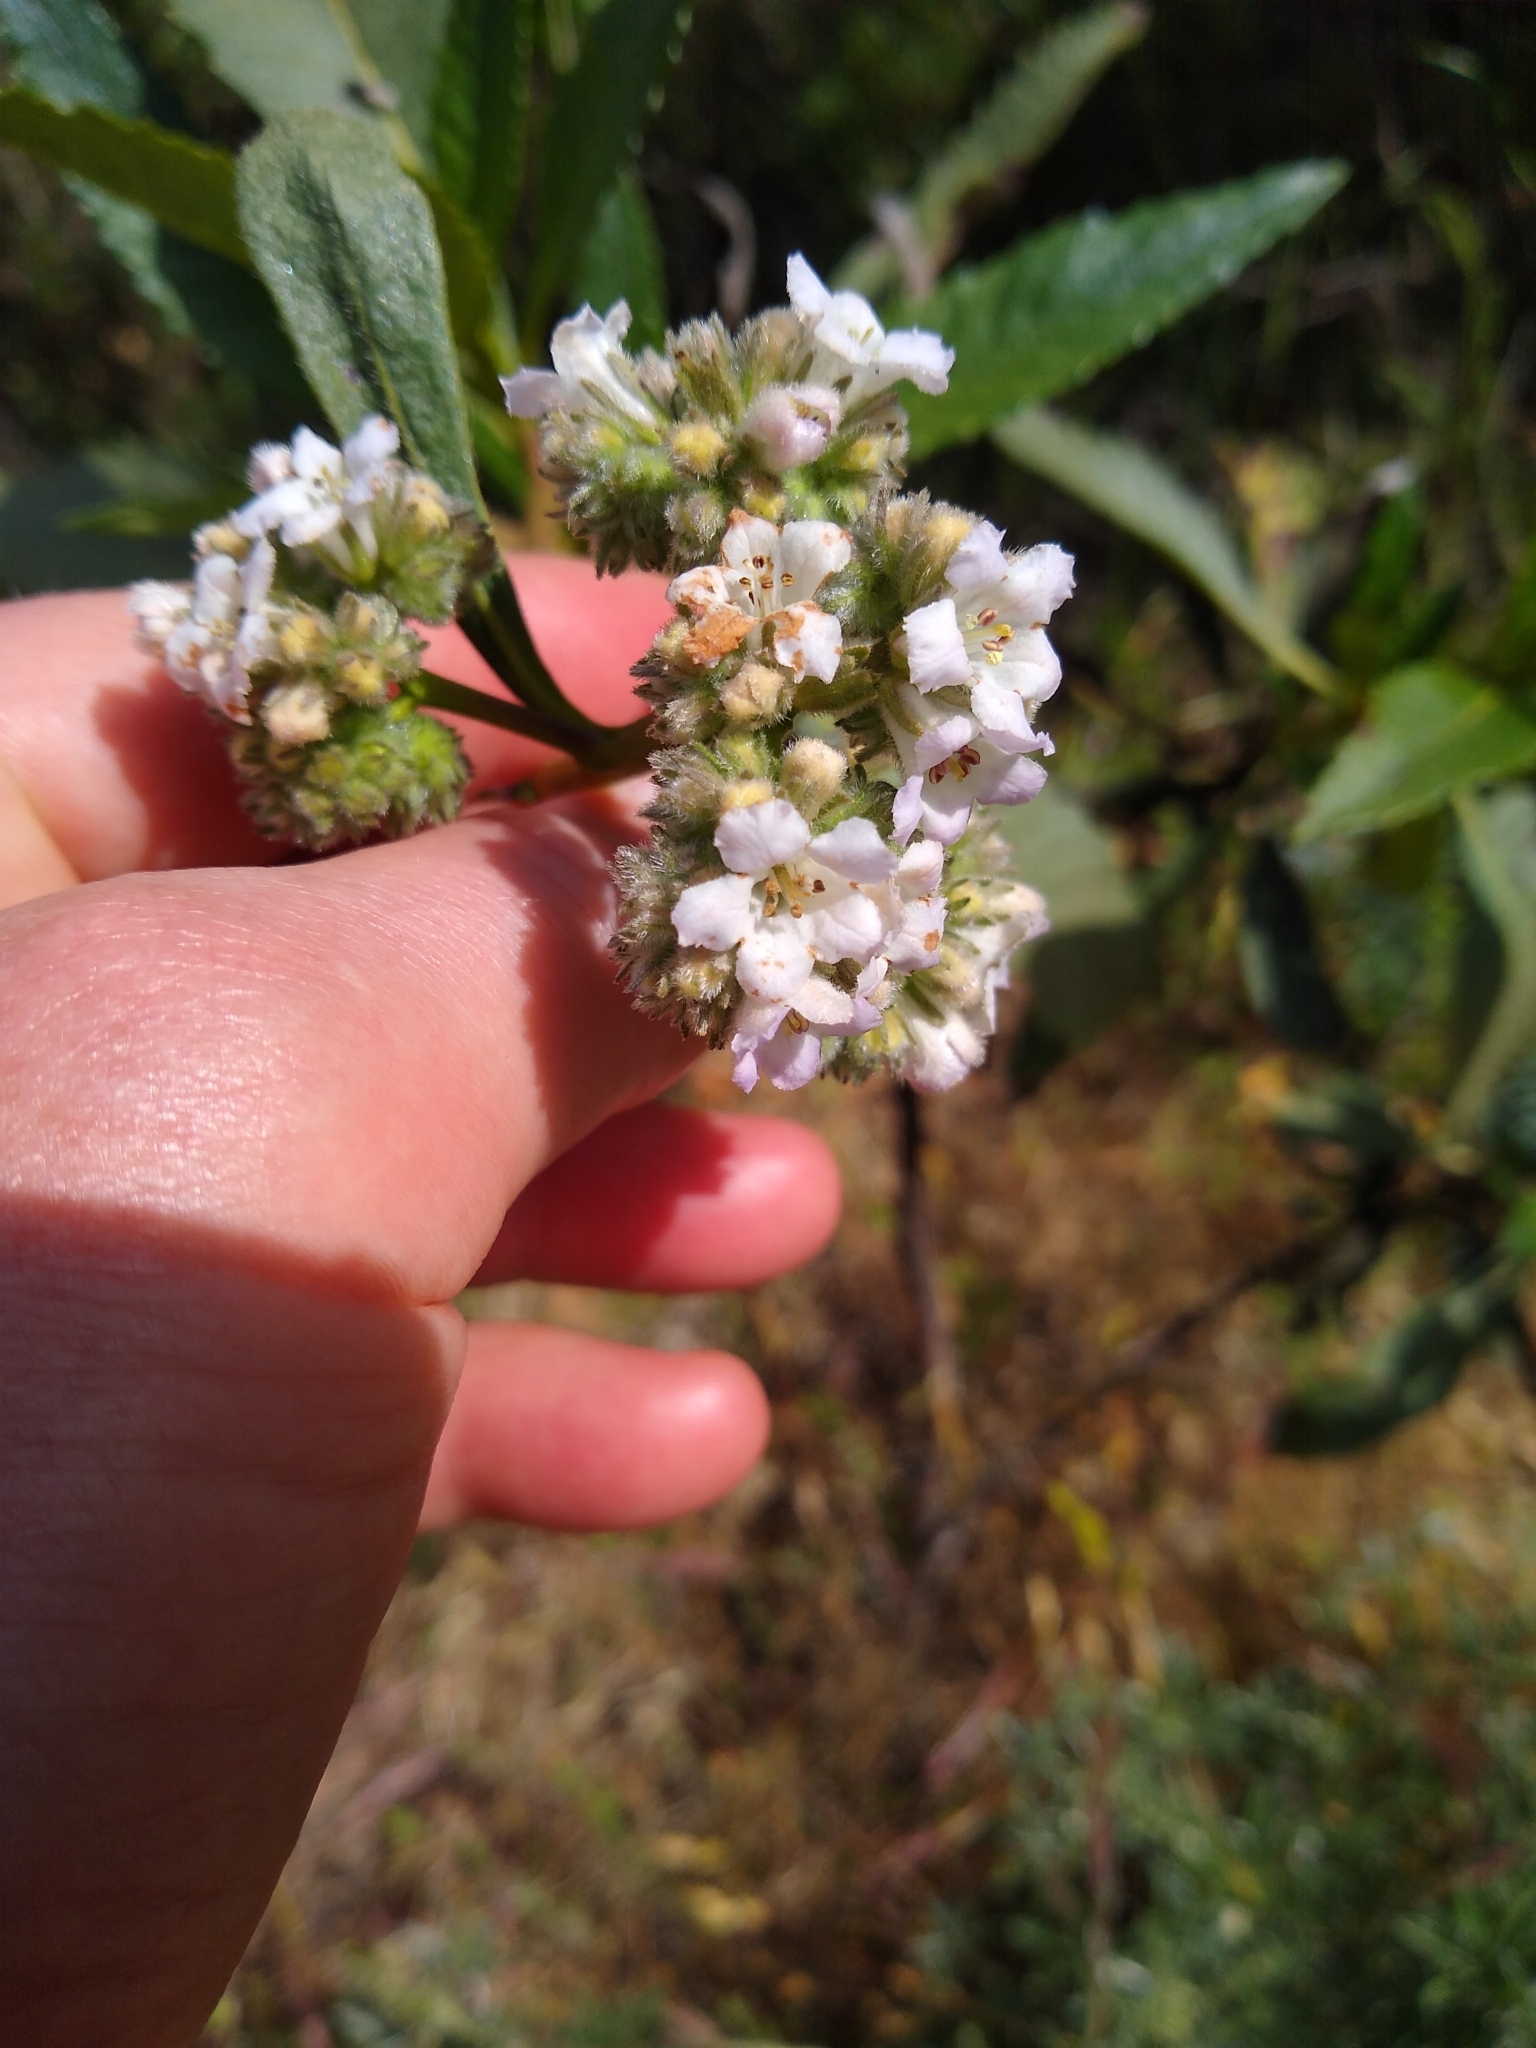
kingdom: Plantae
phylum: Tracheophyta
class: Magnoliopsida
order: Boraginales
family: Namaceae
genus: Eriodictyon
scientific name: Eriodictyon californicum
